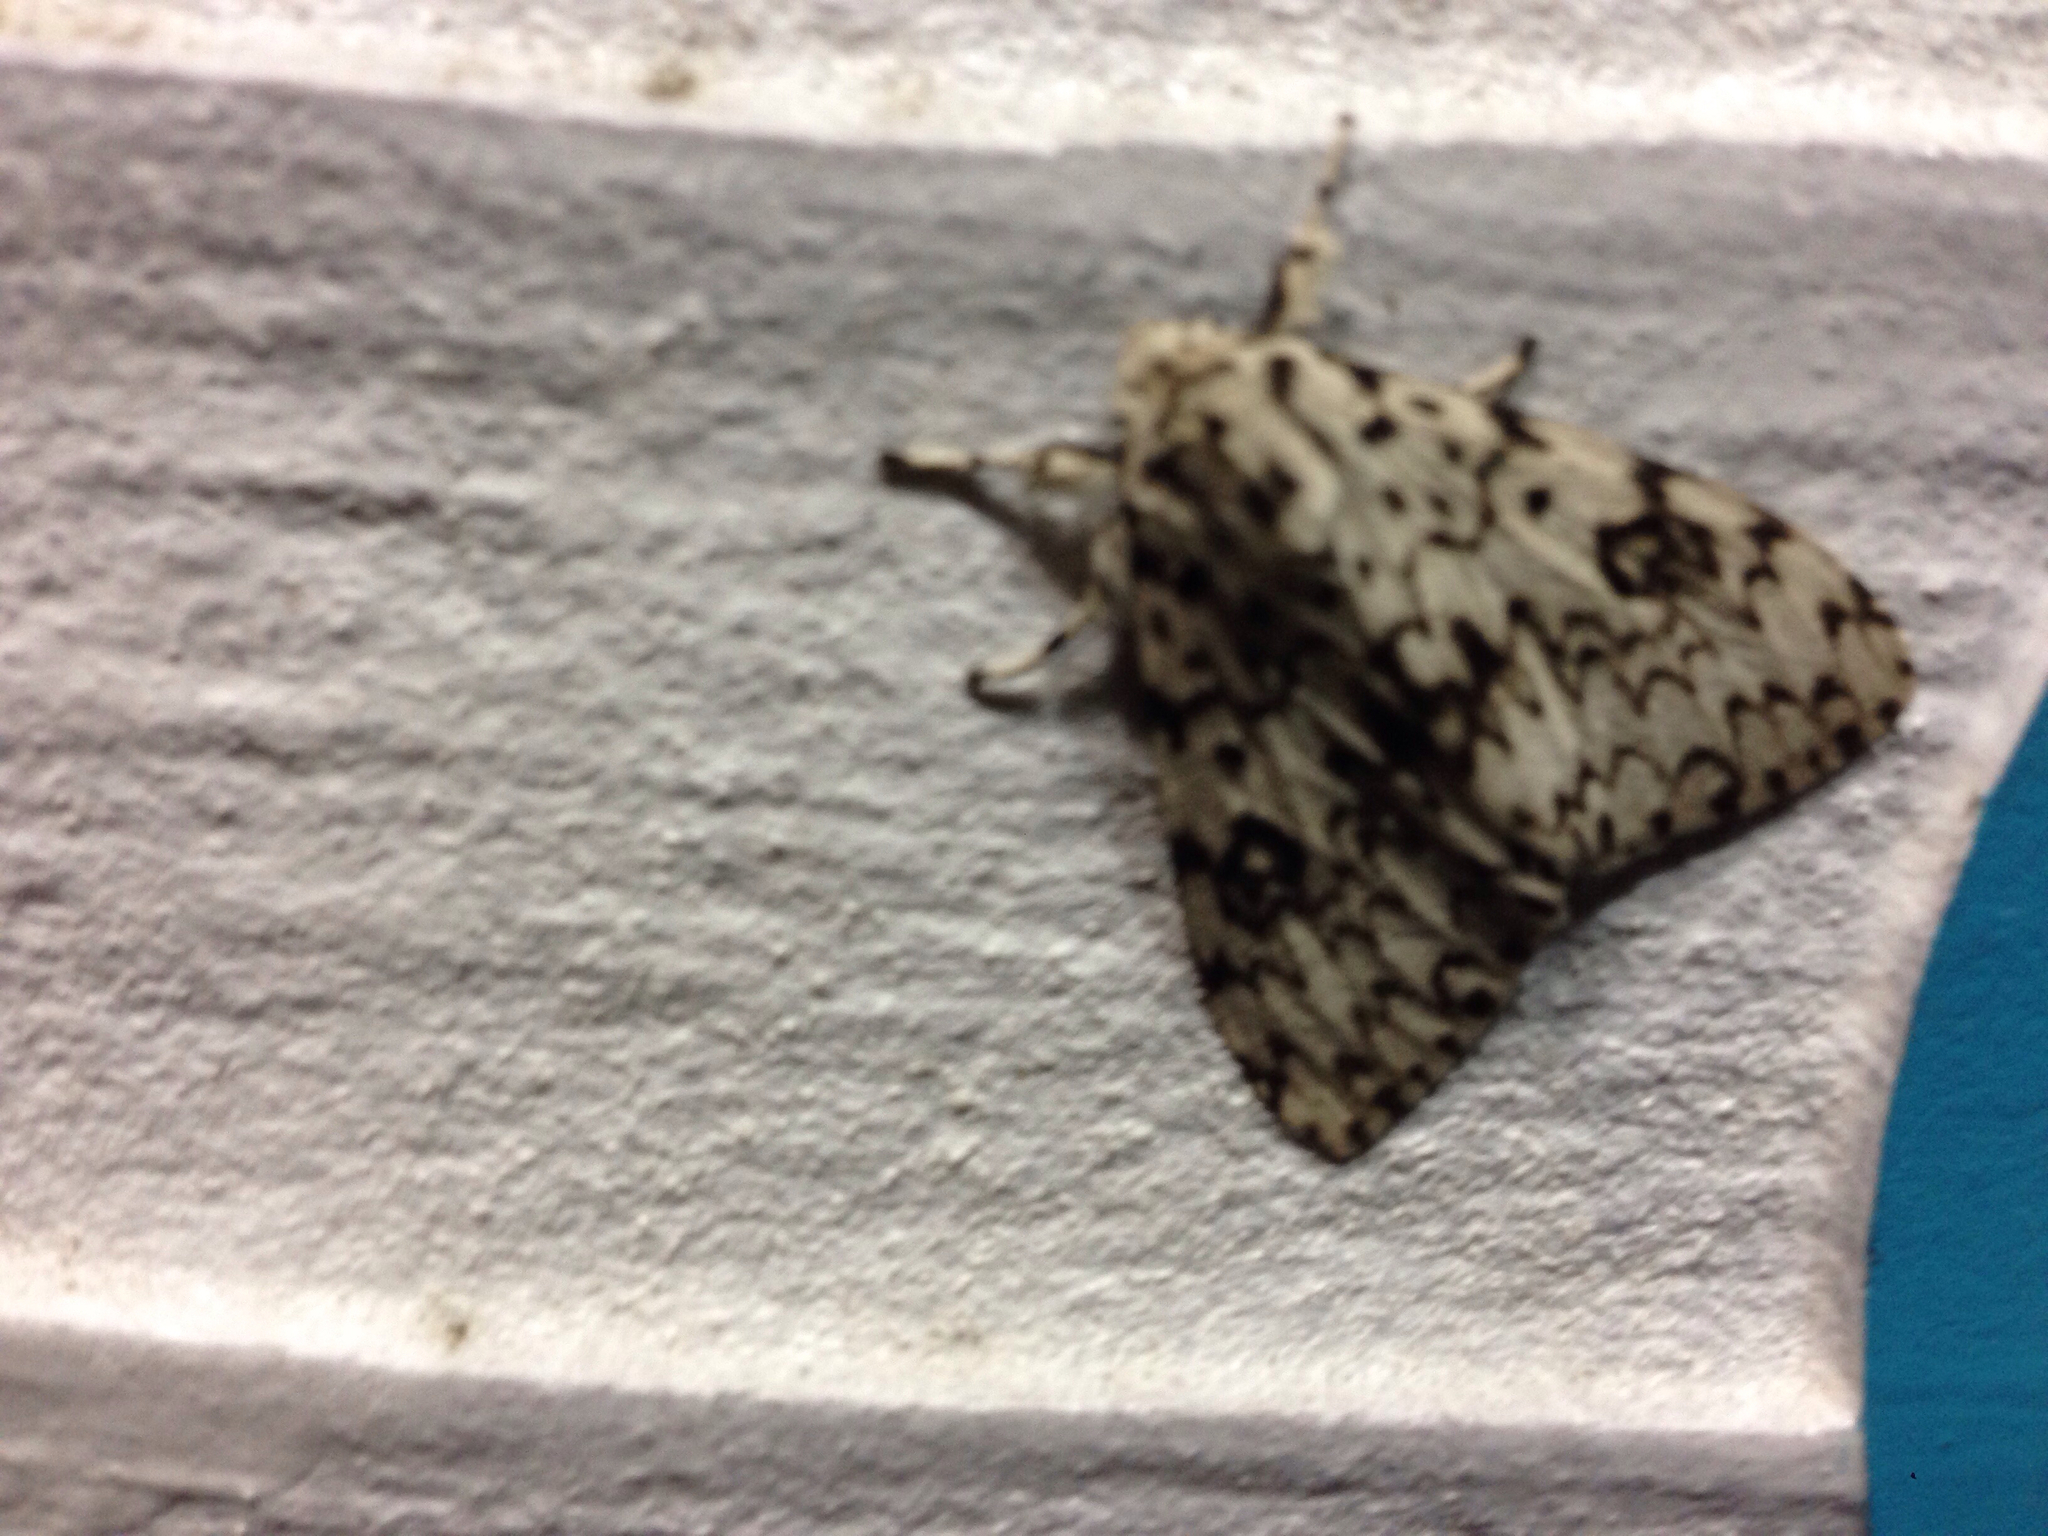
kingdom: Animalia
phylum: Arthropoda
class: Insecta
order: Lepidoptera
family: Erebidae
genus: Lymantria
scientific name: Lymantria monacha
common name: Black arches
